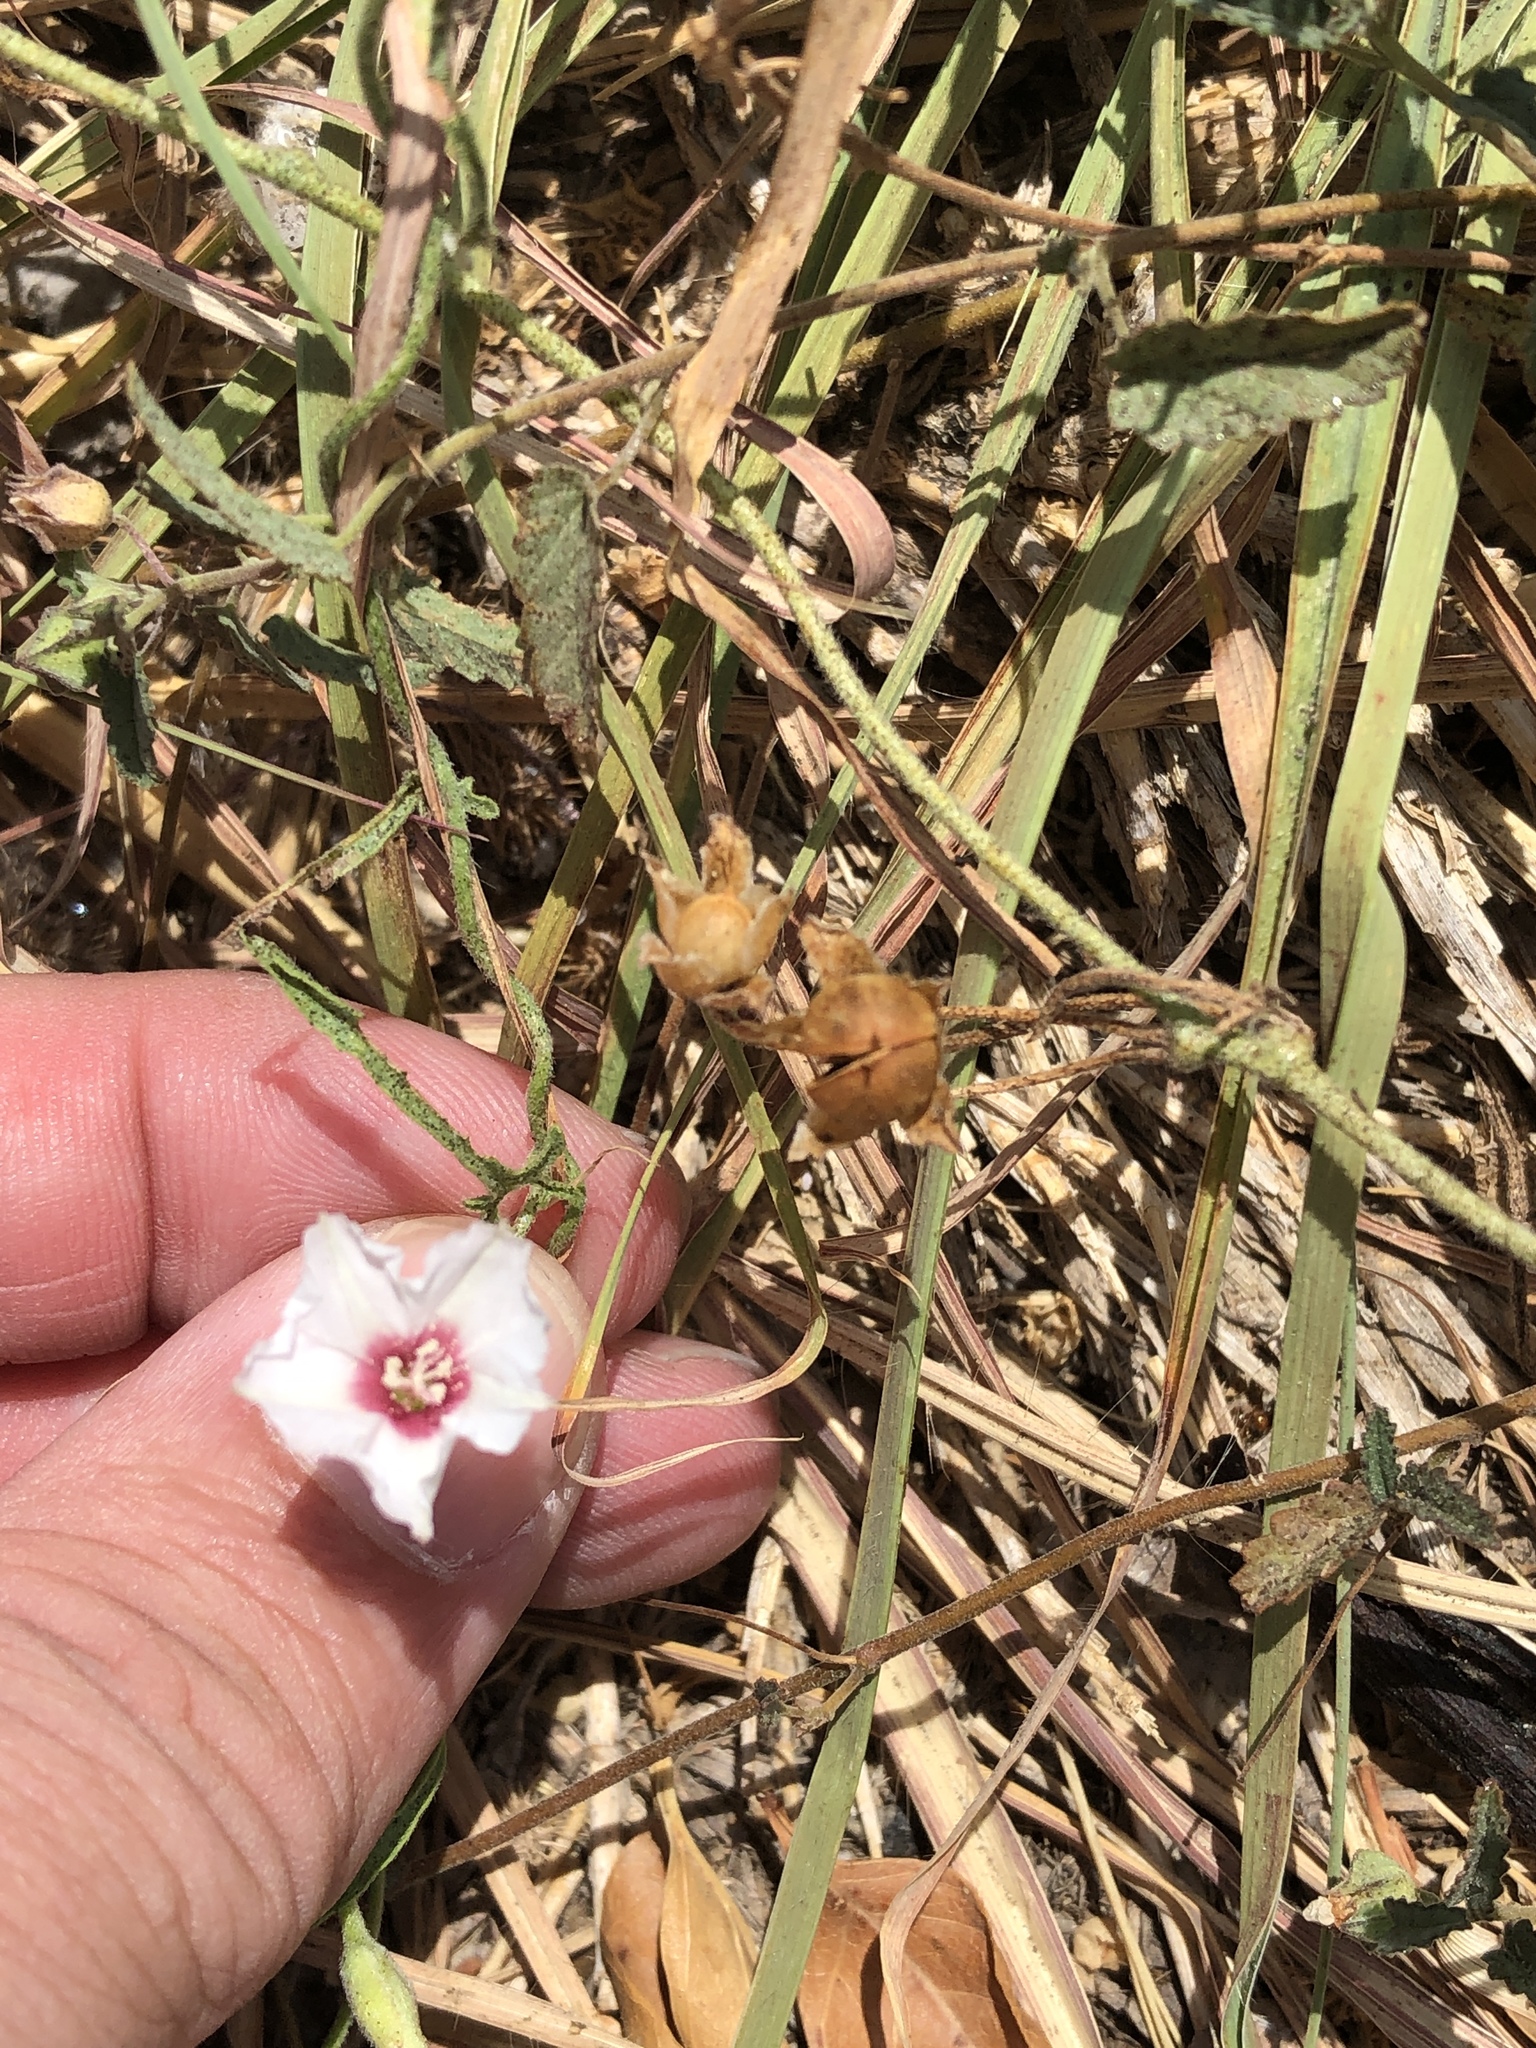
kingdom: Plantae
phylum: Tracheophyta
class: Magnoliopsida
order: Solanales
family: Convolvulaceae
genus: Convolvulus
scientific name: Convolvulus equitans
